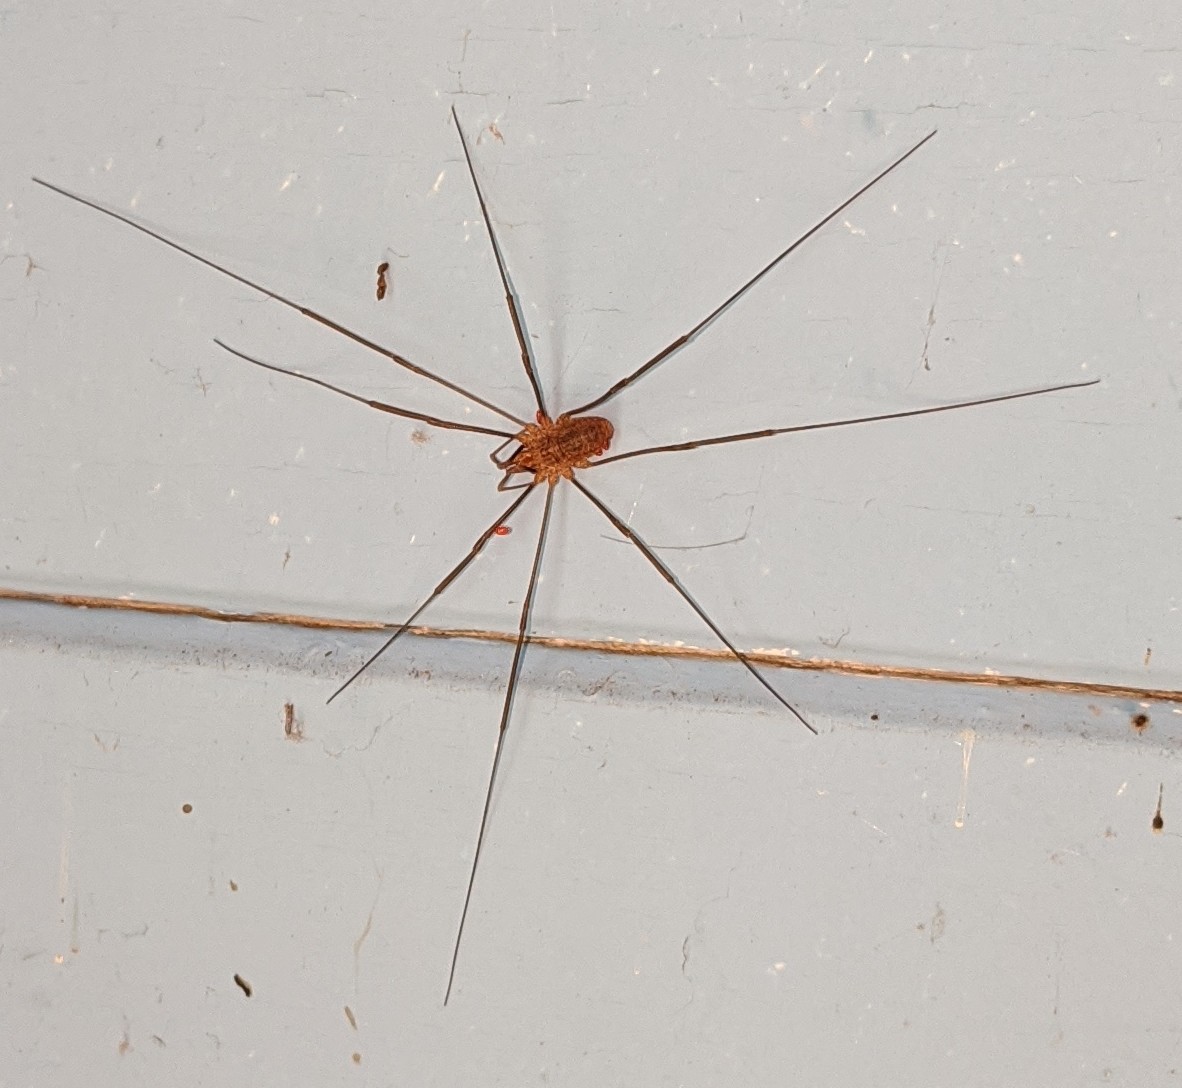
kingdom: Animalia
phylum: Arthropoda
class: Arachnida
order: Opiliones
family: Phalangiidae
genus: Phalangium
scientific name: Phalangium opilio
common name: Daddy longleg
